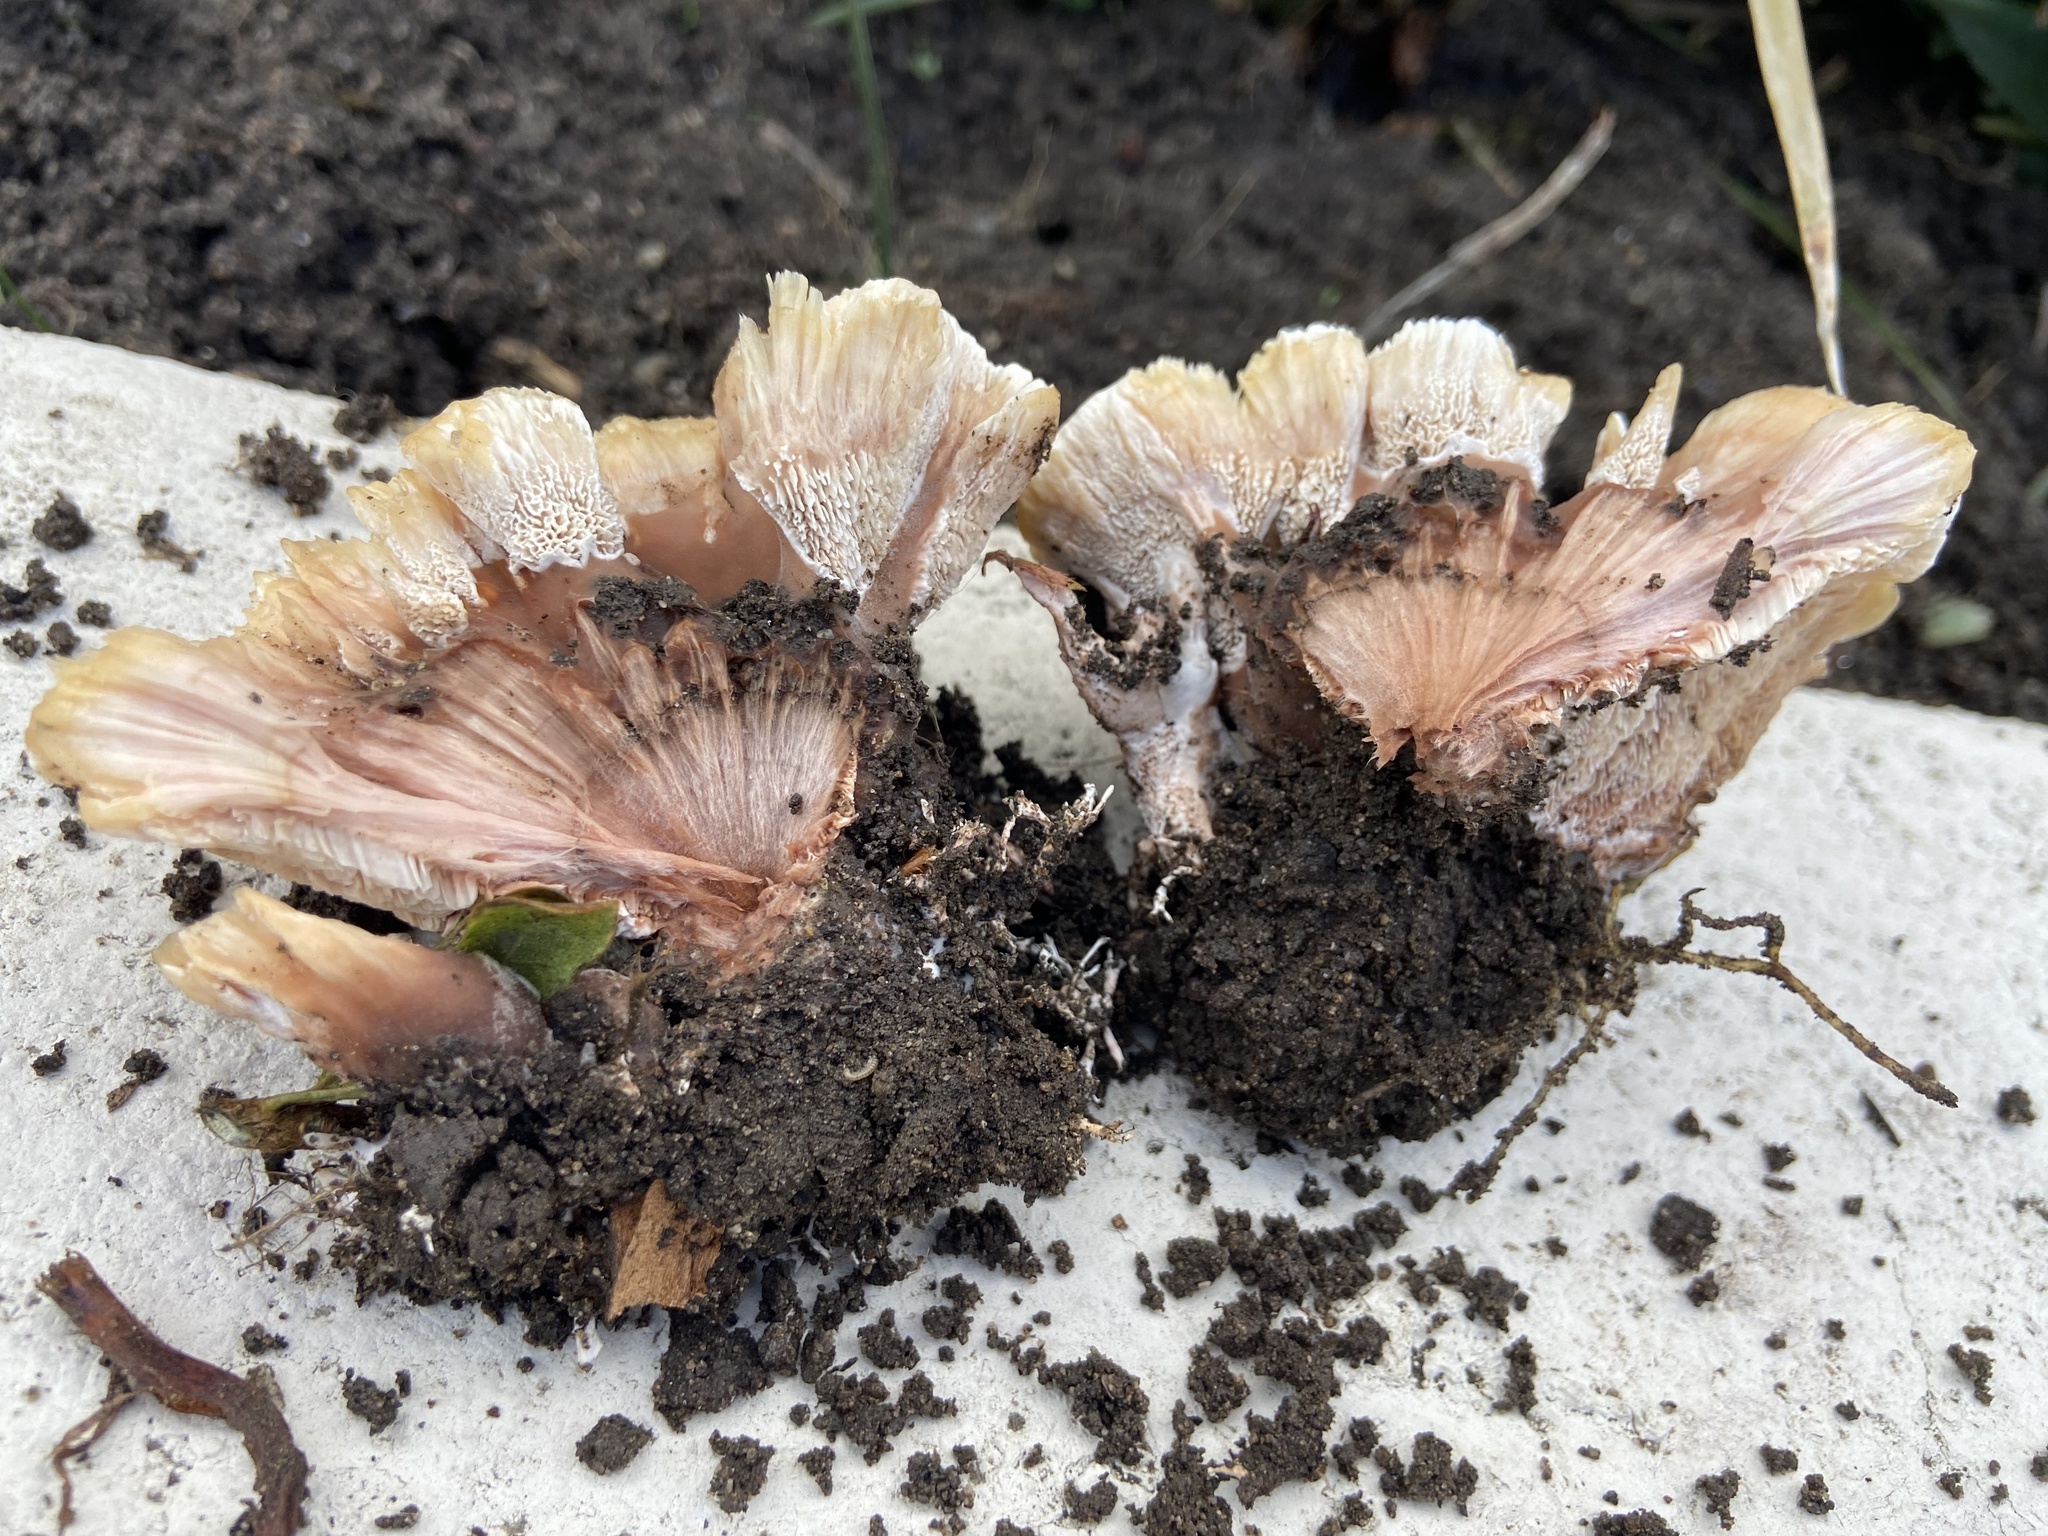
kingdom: Fungi
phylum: Basidiomycota
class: Agaricomycetes
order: Polyporales
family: Podoscyphaceae
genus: Abortiporus
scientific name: Abortiporus biennis
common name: Blushing rosette
